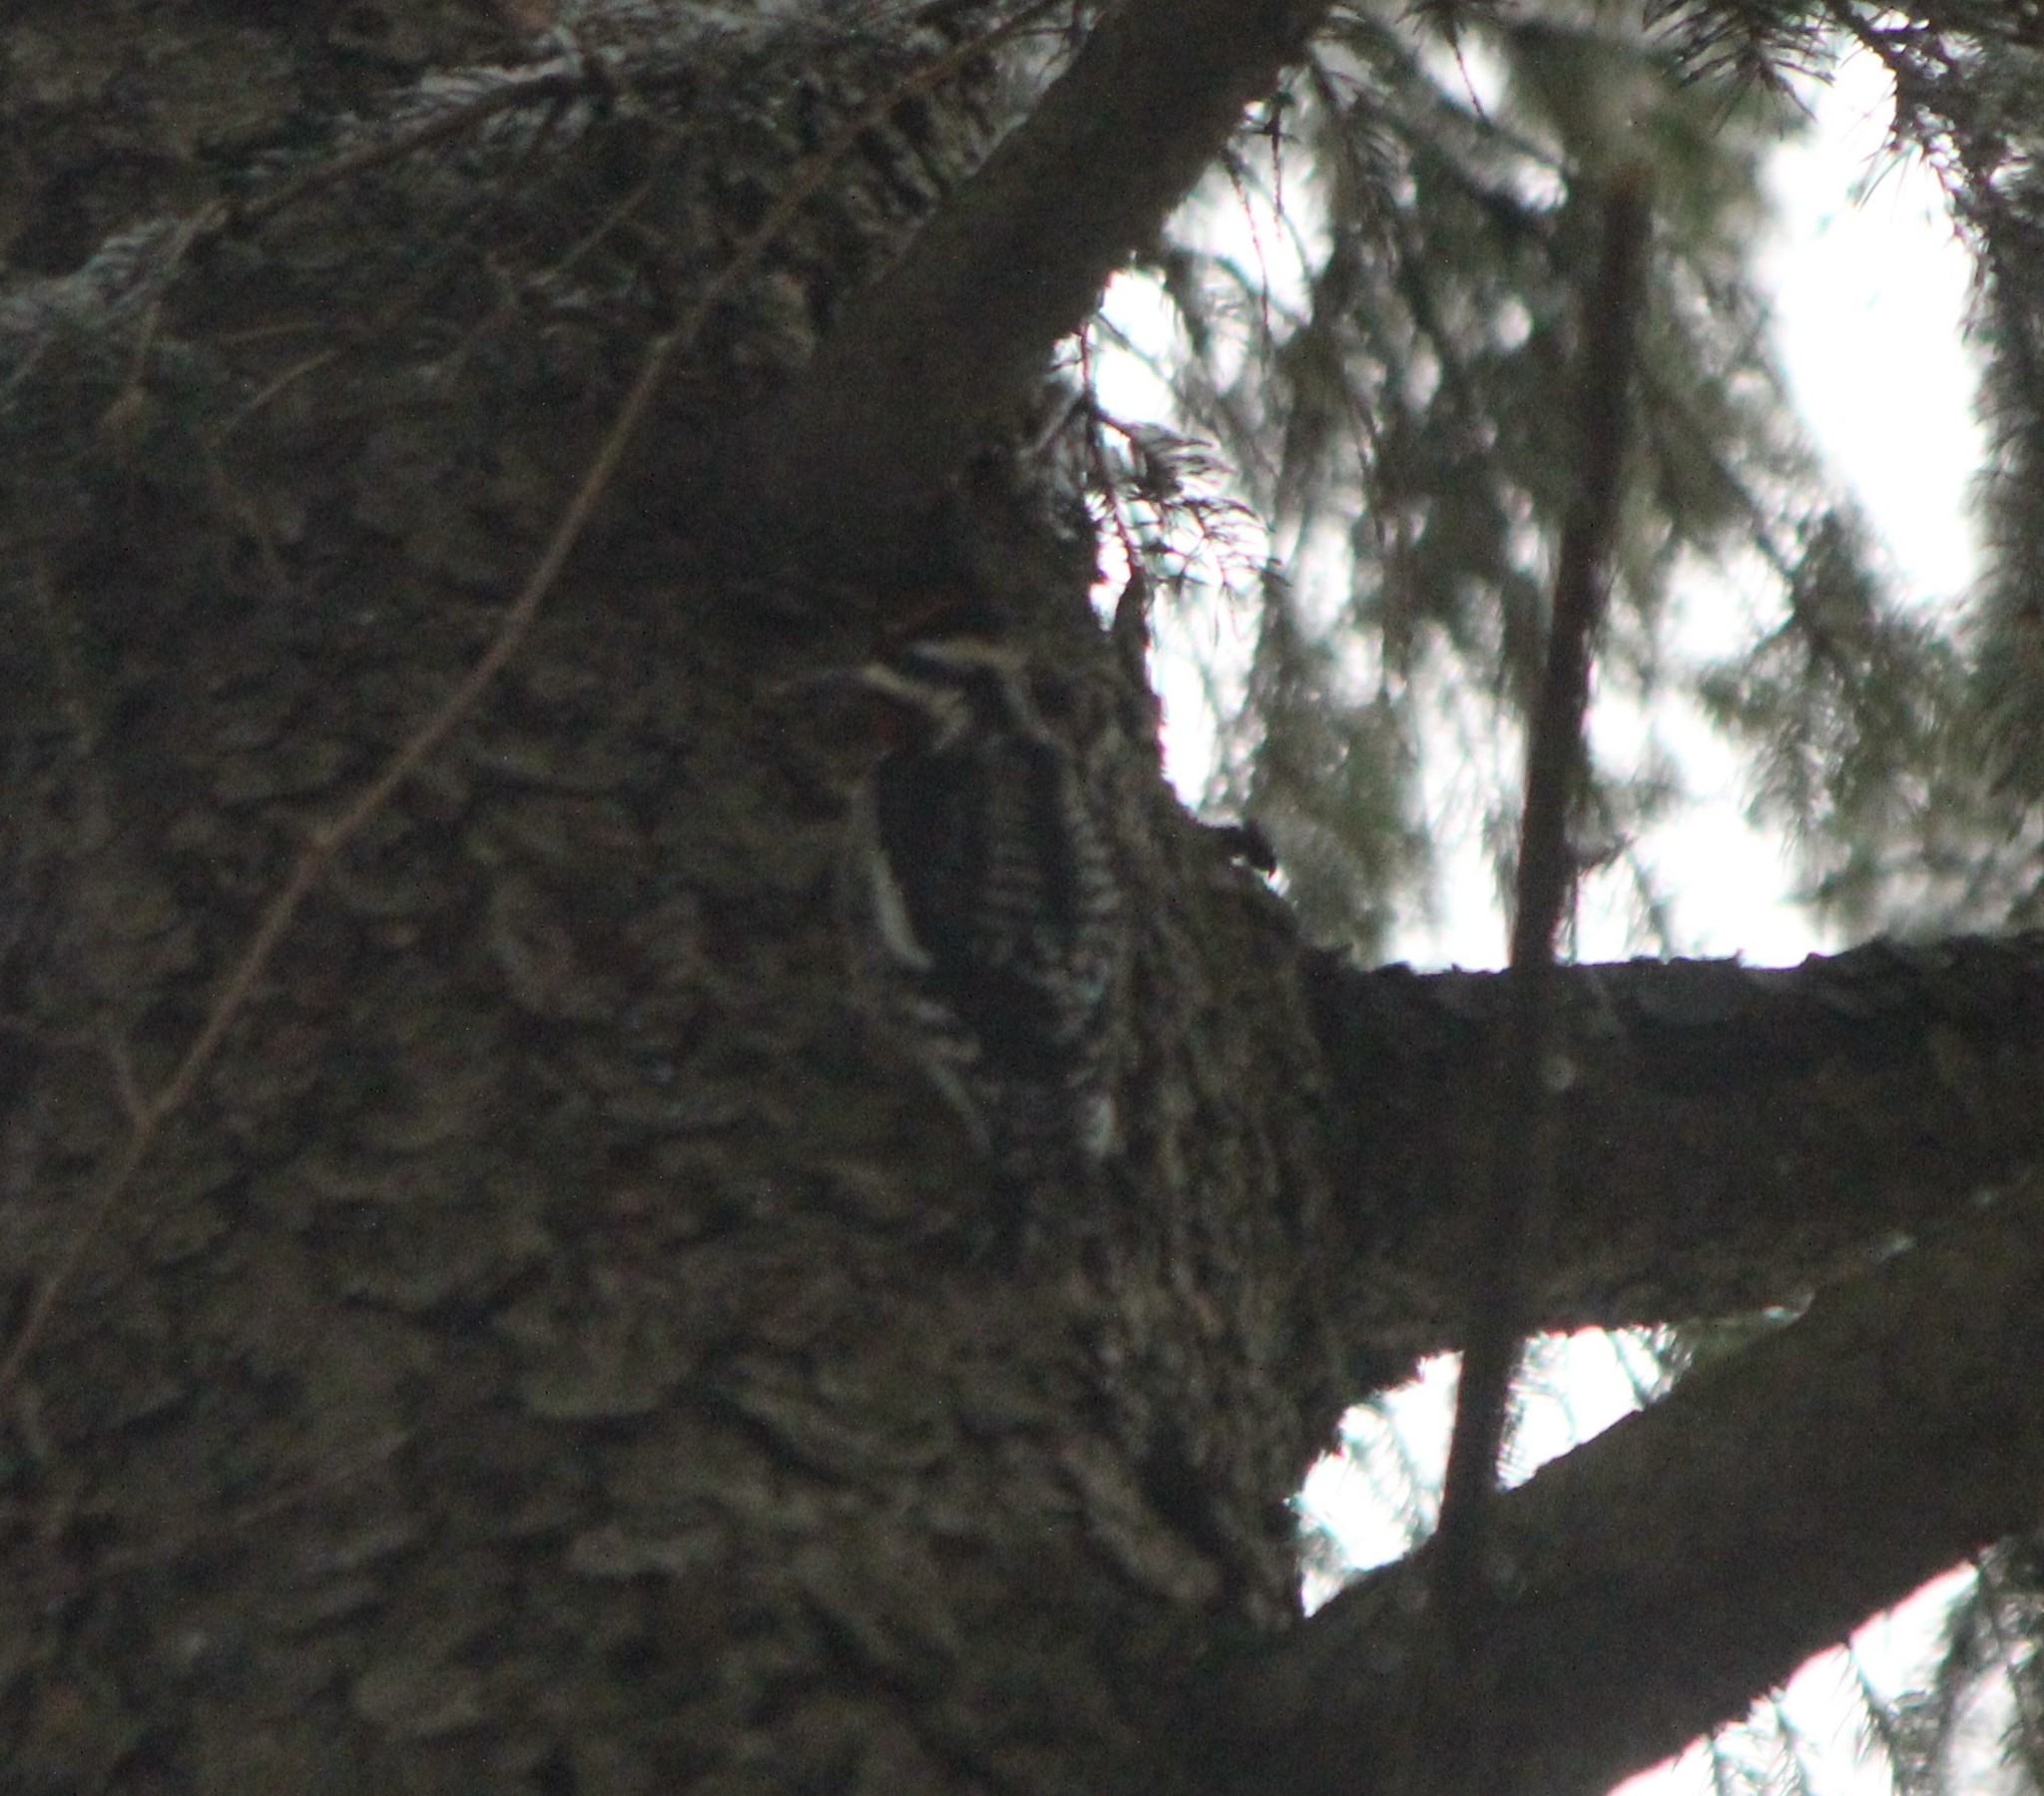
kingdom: Animalia
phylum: Chordata
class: Aves
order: Piciformes
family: Picidae
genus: Sphyrapicus
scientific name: Sphyrapicus varius
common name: Yellow-bellied sapsucker
